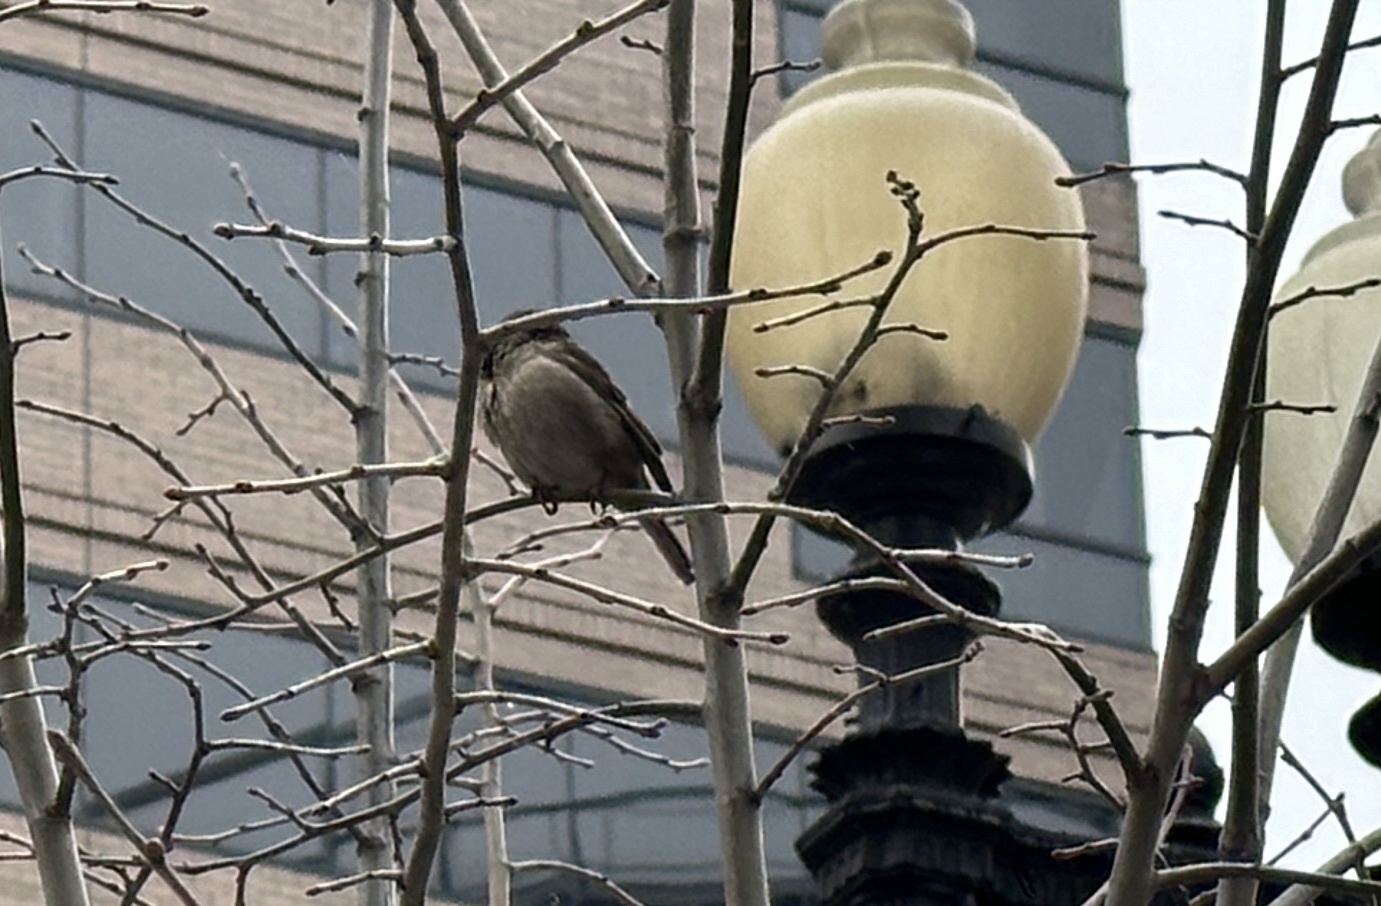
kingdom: Animalia
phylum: Chordata
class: Aves
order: Passeriformes
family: Passeridae
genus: Passer
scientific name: Passer domesticus
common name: House sparrow
